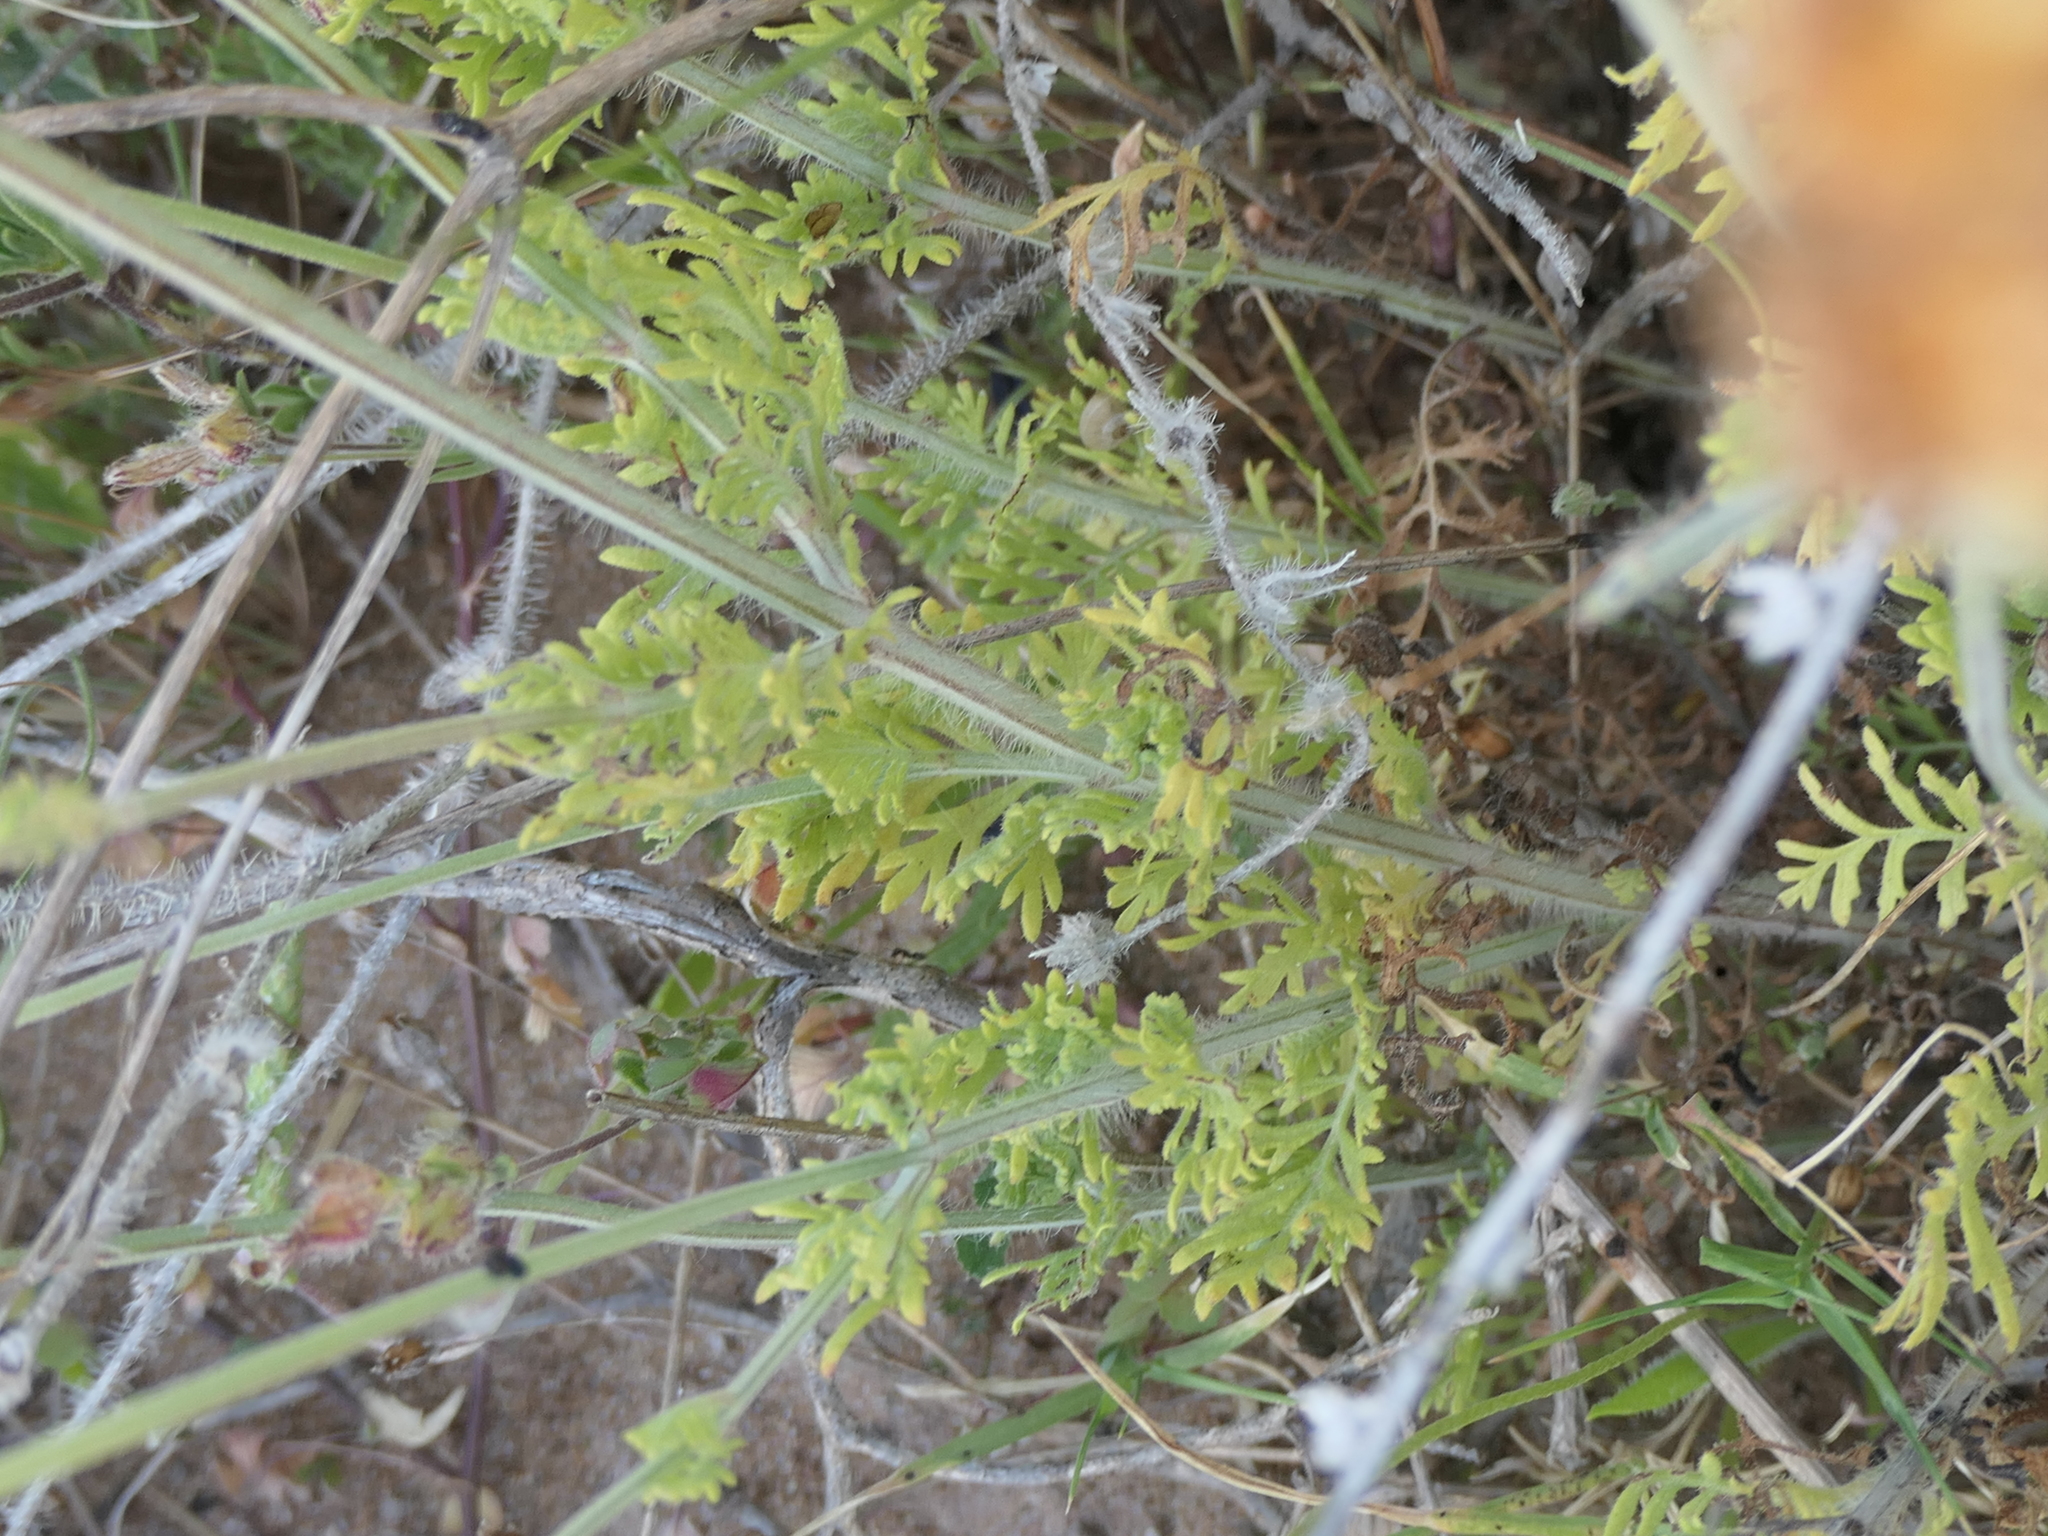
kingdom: Plantae
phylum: Tracheophyta
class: Magnoliopsida
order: Lamiales
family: Lamiaceae
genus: Lavandula
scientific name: Lavandula multifida
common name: Fern-leaf lavender
